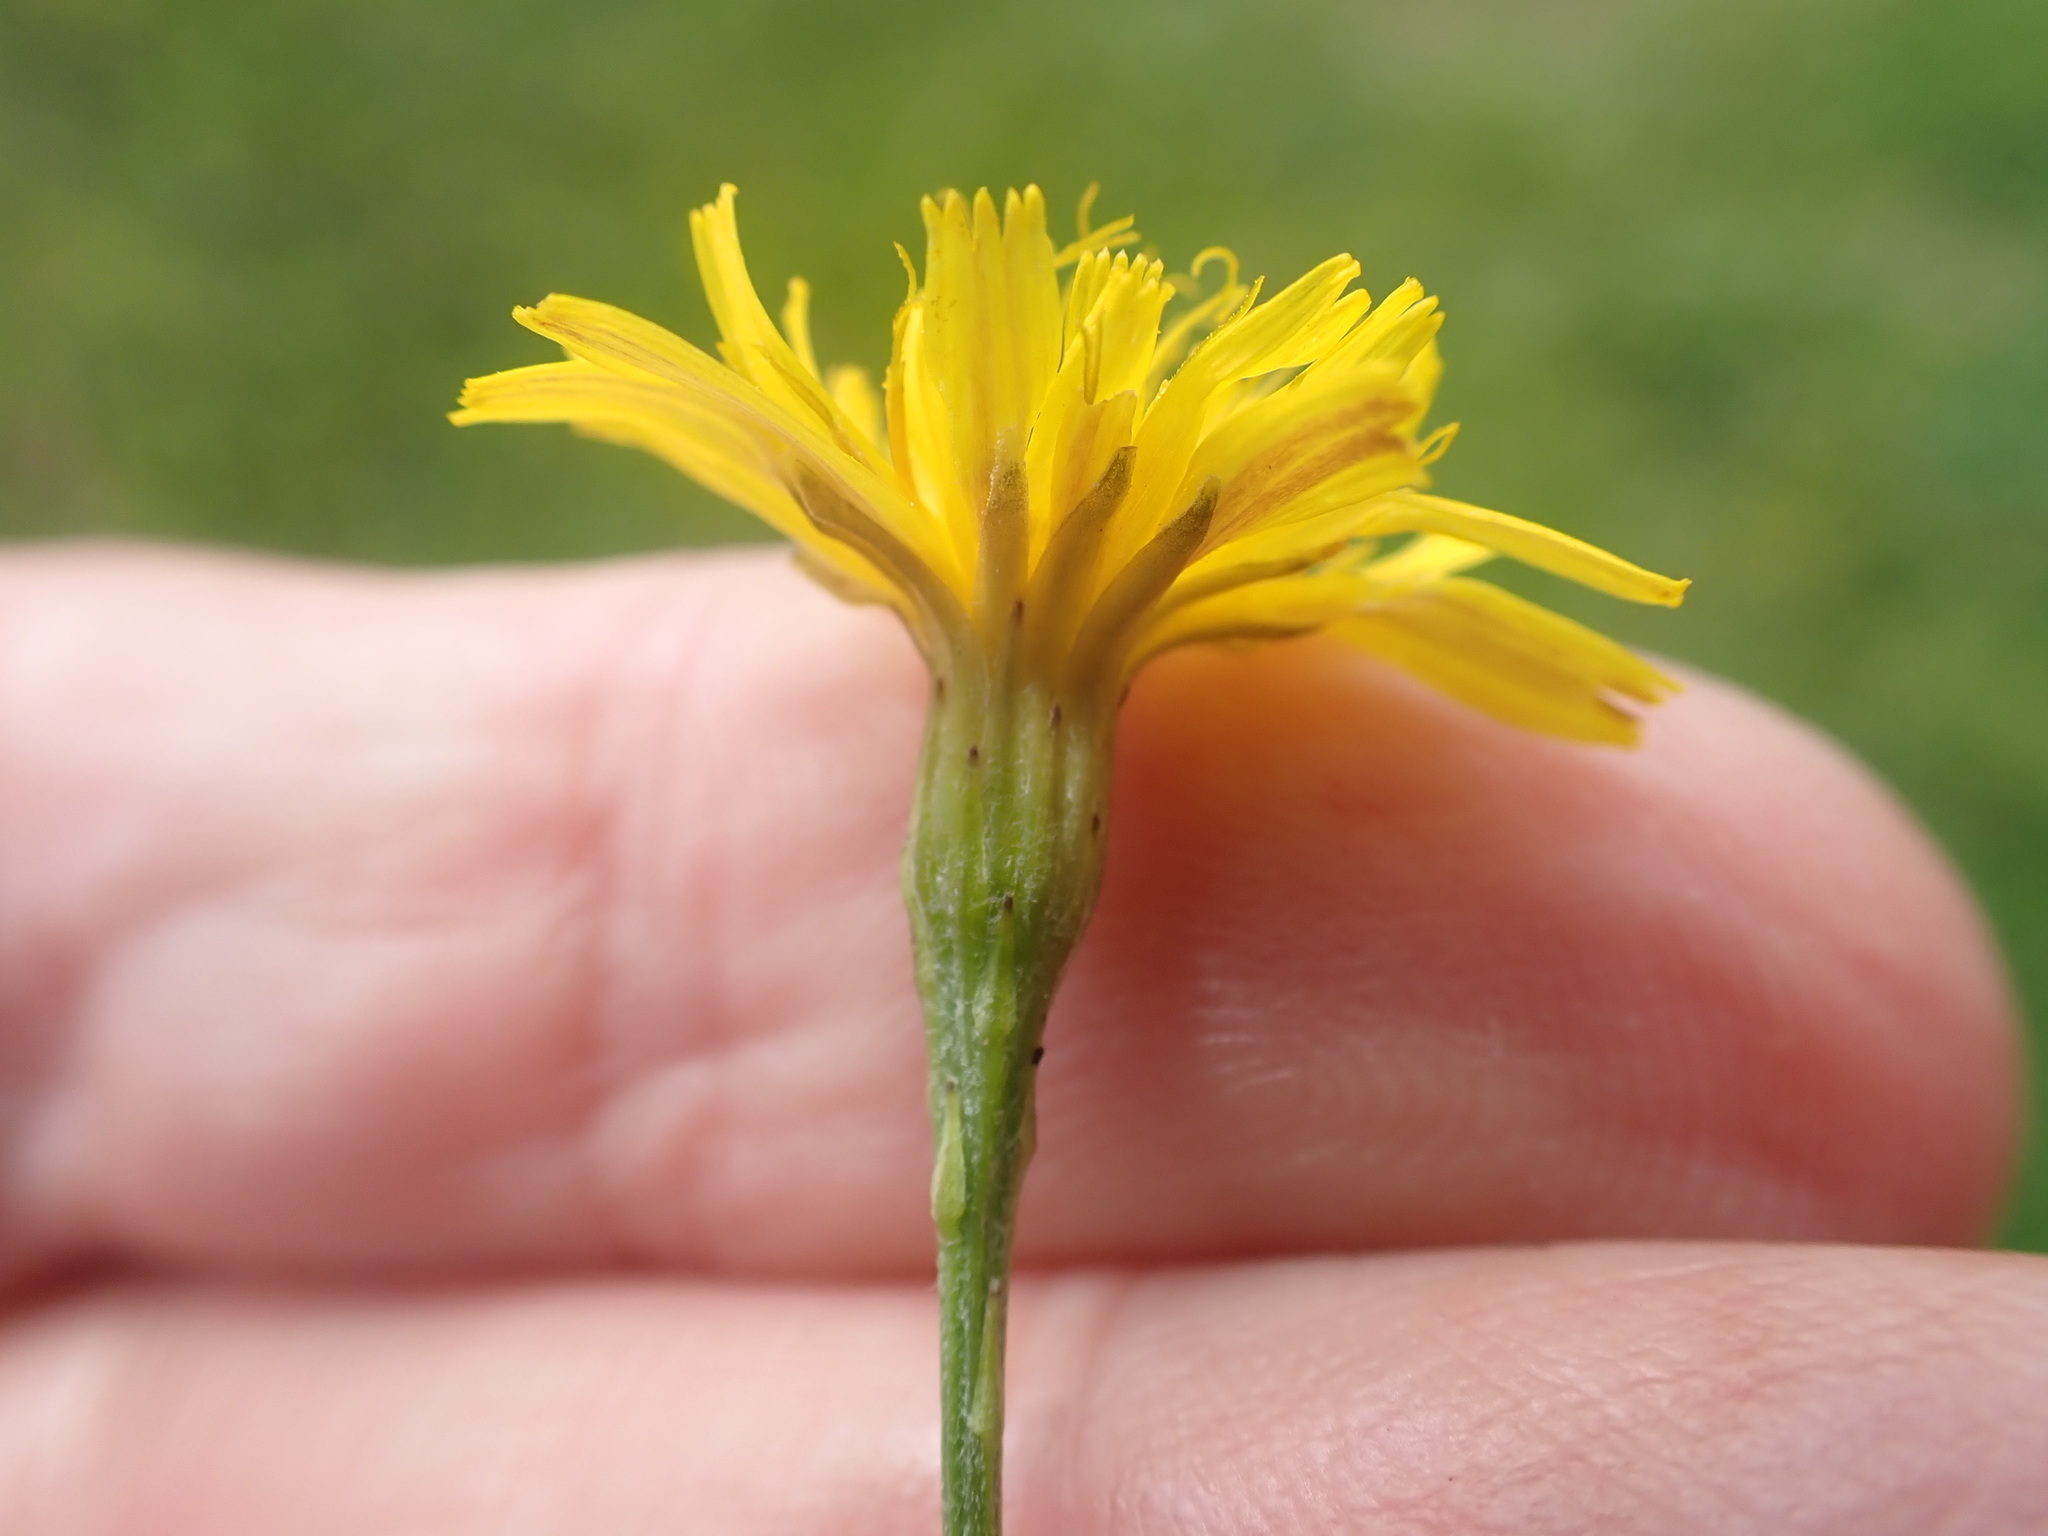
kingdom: Plantae
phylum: Tracheophyta
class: Magnoliopsida
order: Asterales
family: Asteraceae
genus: Scorzoneroides
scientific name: Scorzoneroides autumnalis
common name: Autumn hawkbit
